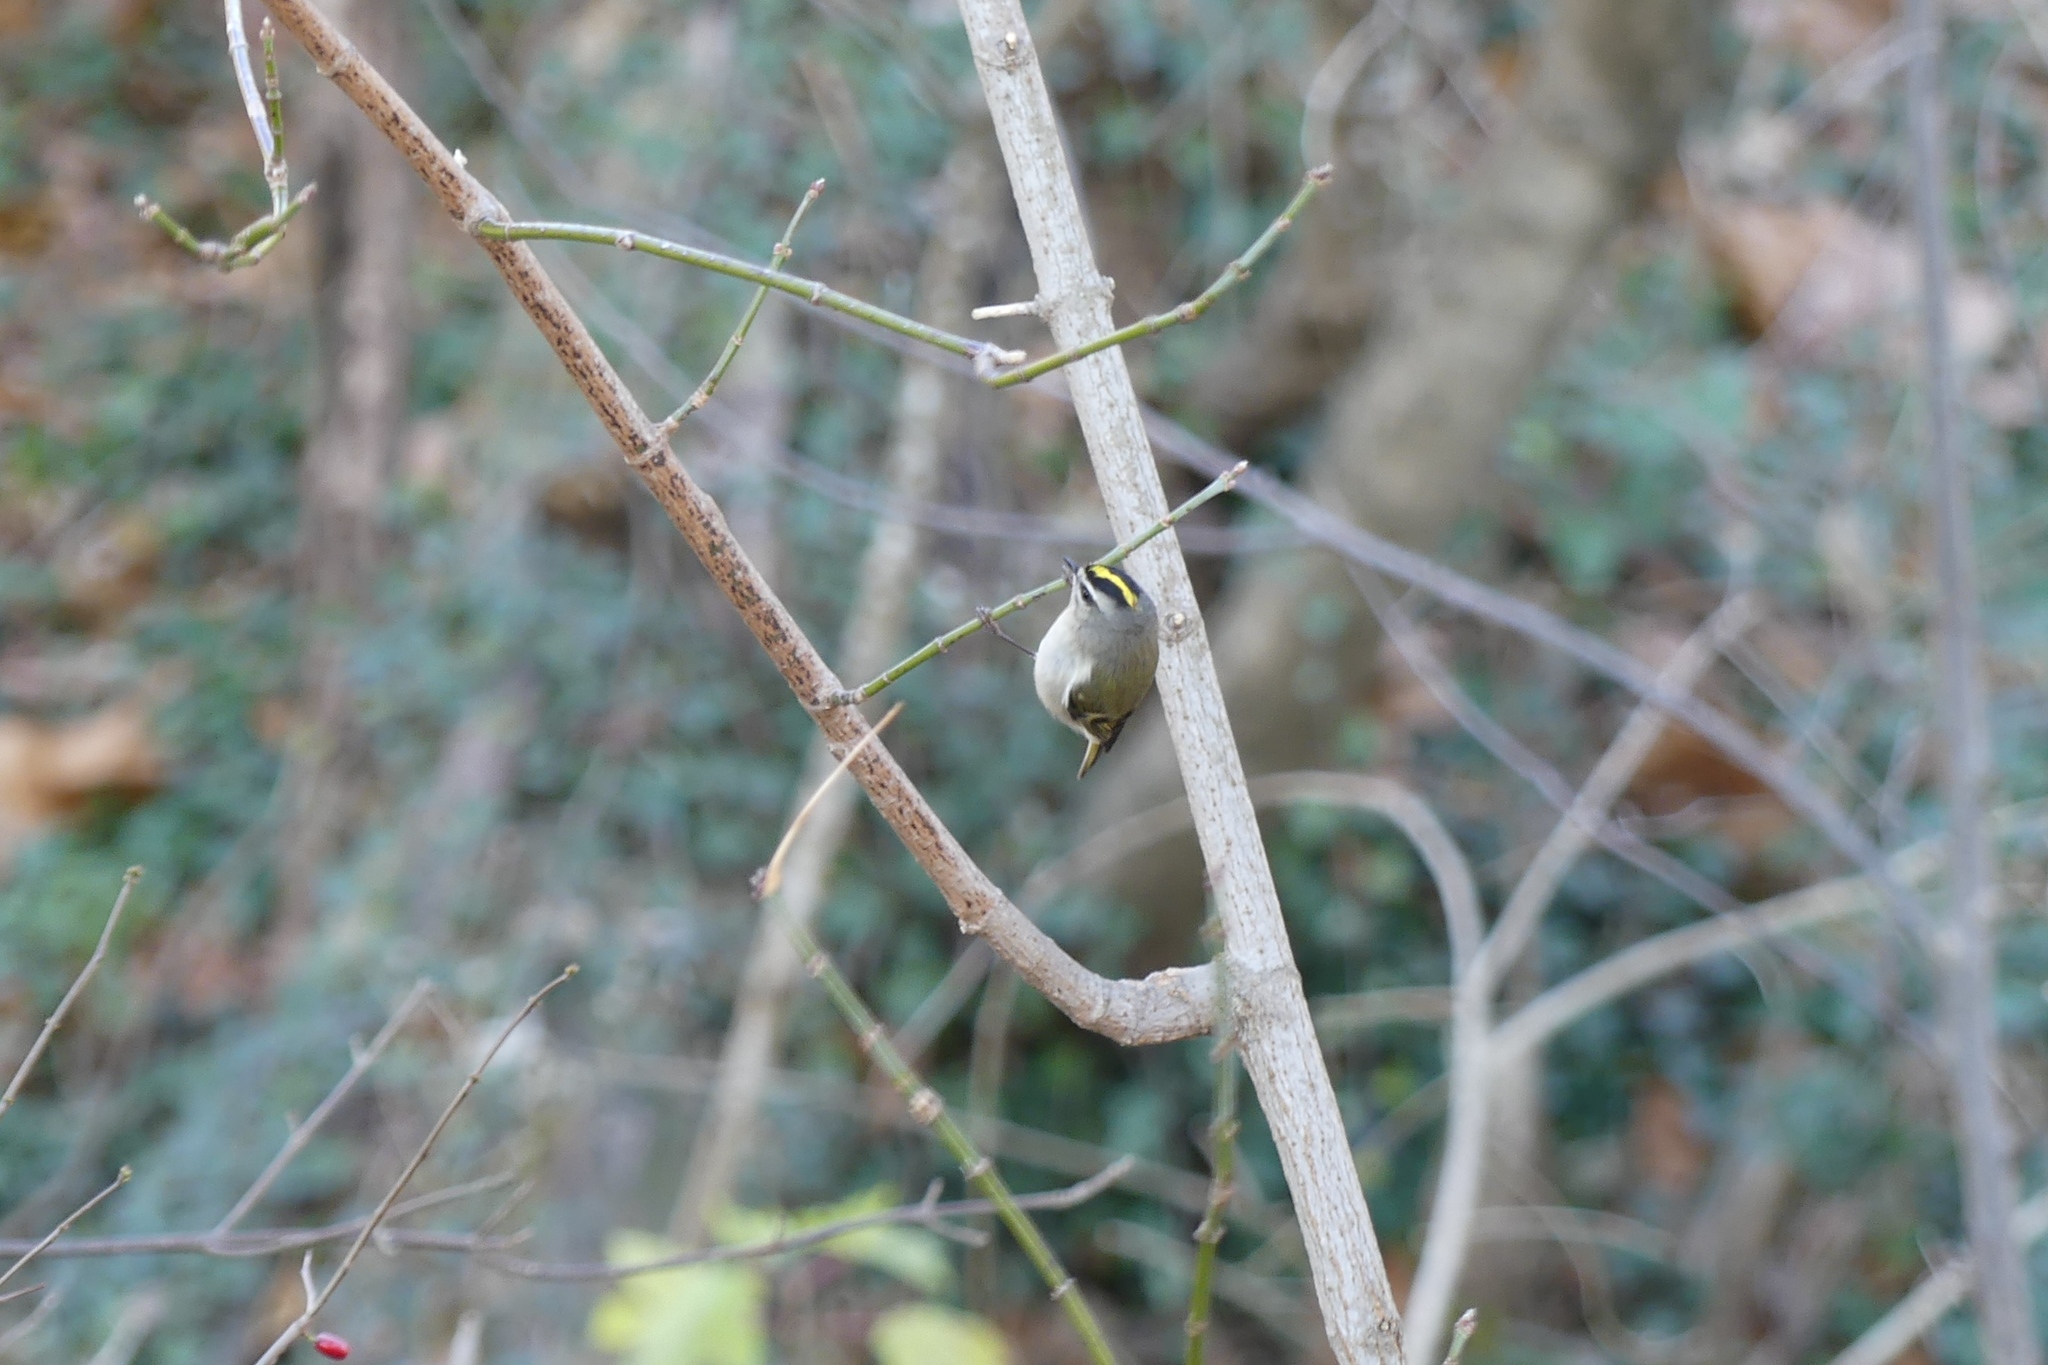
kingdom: Animalia
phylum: Chordata
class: Aves
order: Passeriformes
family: Regulidae
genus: Regulus
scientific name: Regulus satrapa
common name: Golden-crowned kinglet
